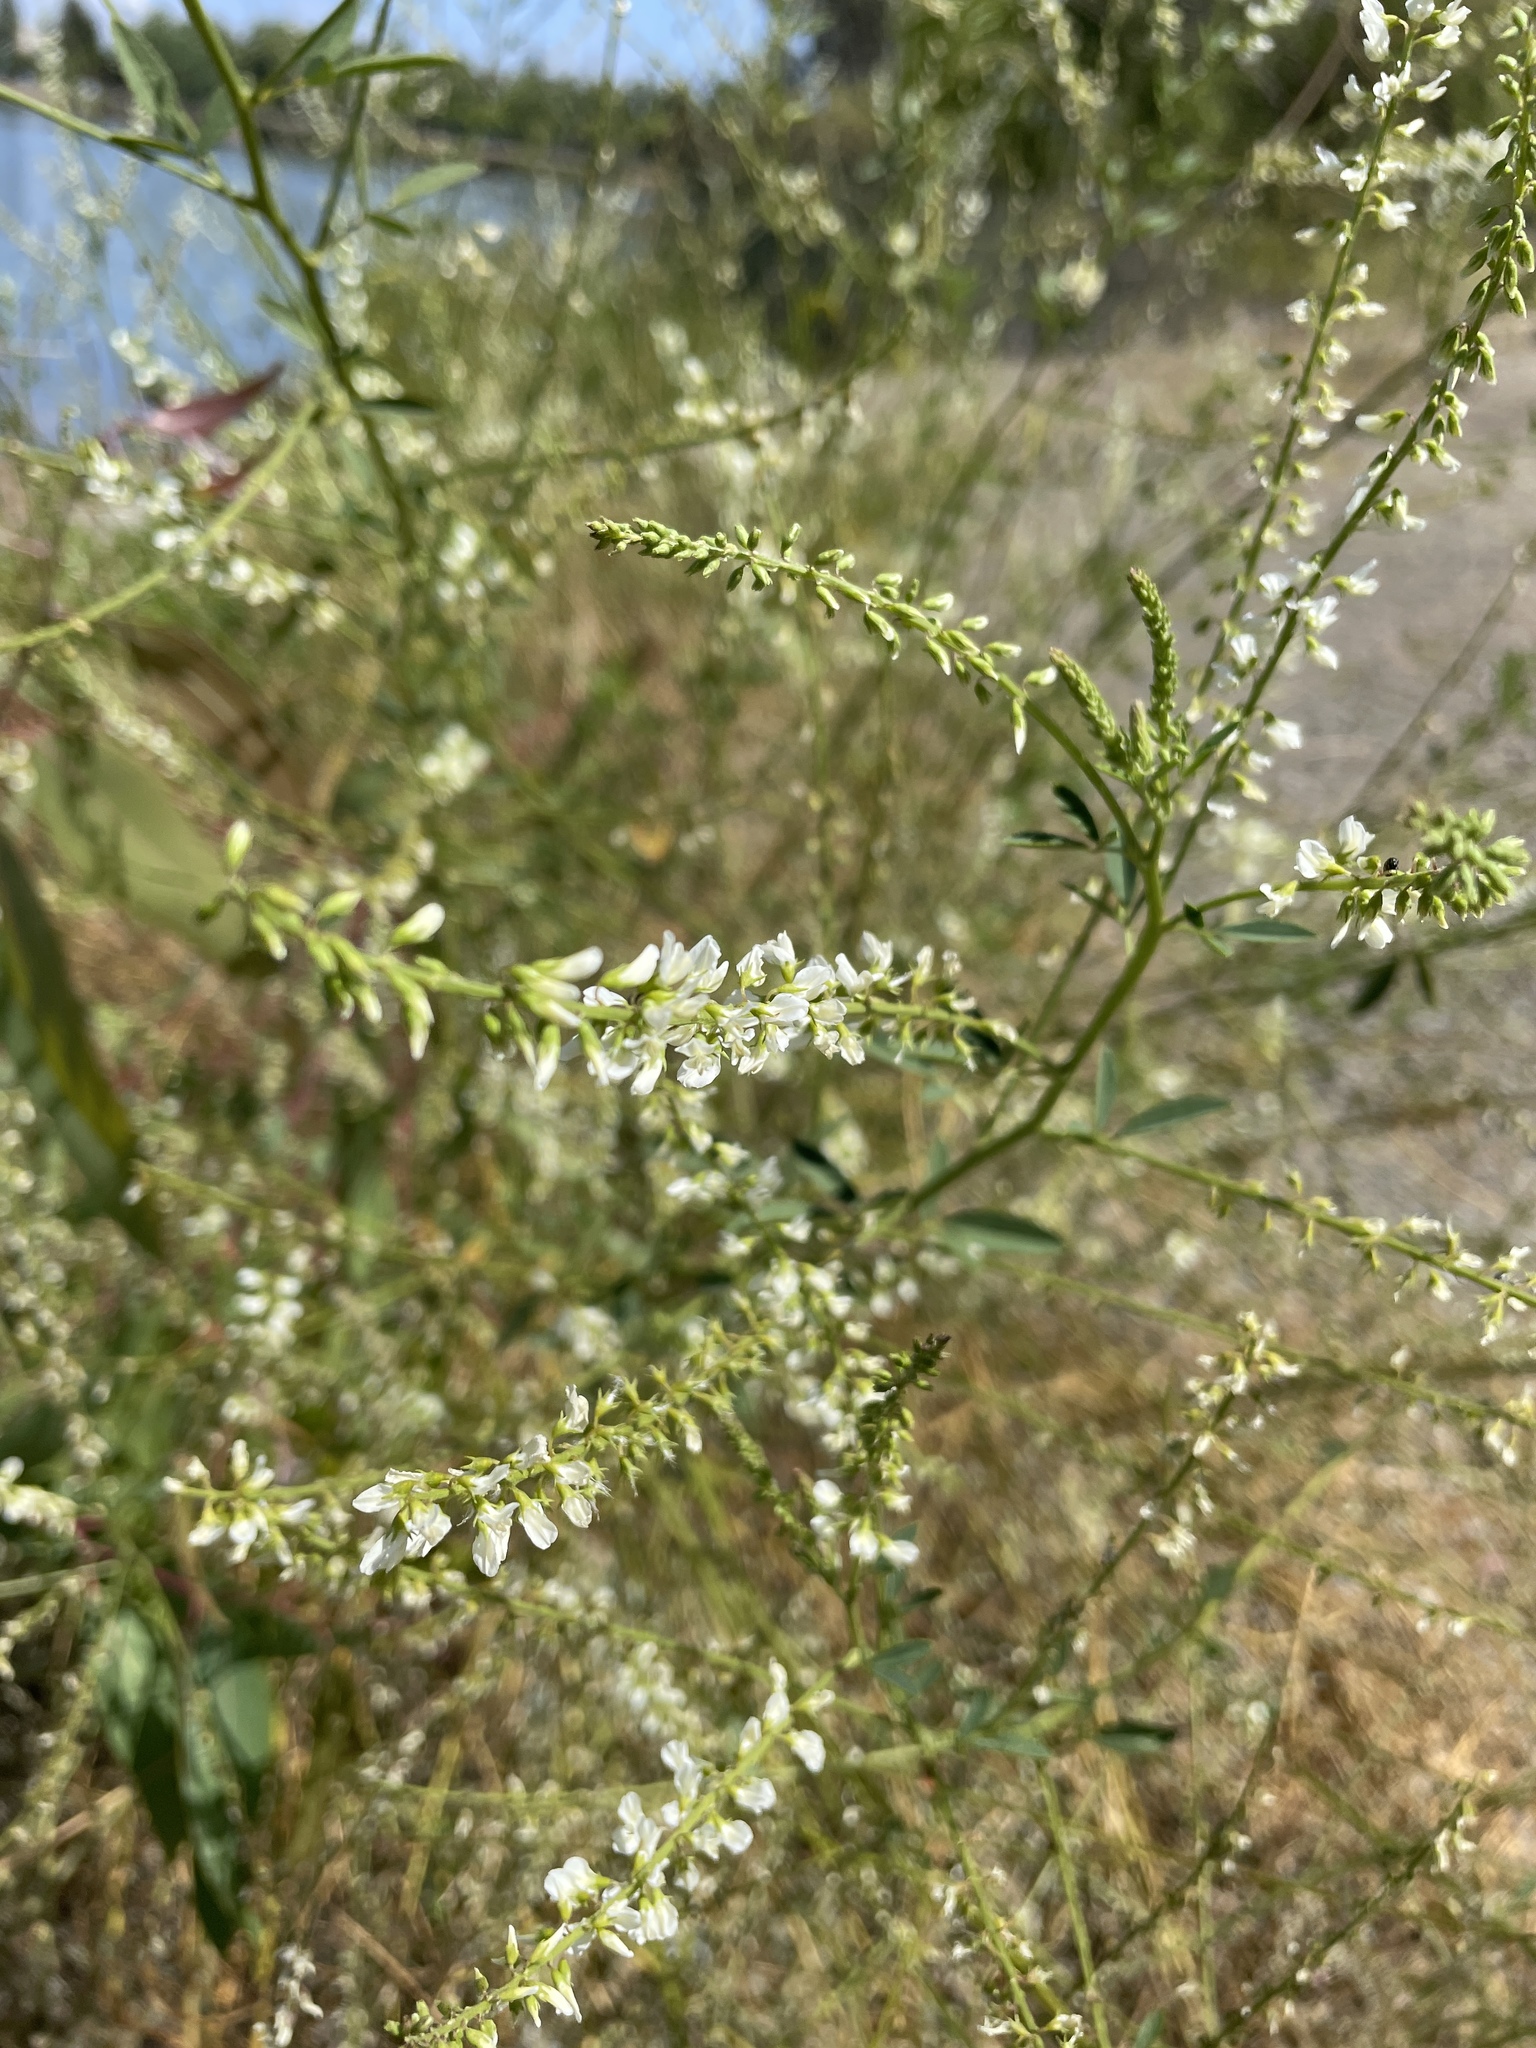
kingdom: Plantae
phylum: Tracheophyta
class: Magnoliopsida
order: Fabales
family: Fabaceae
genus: Melilotus
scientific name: Melilotus albus
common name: White melilot
